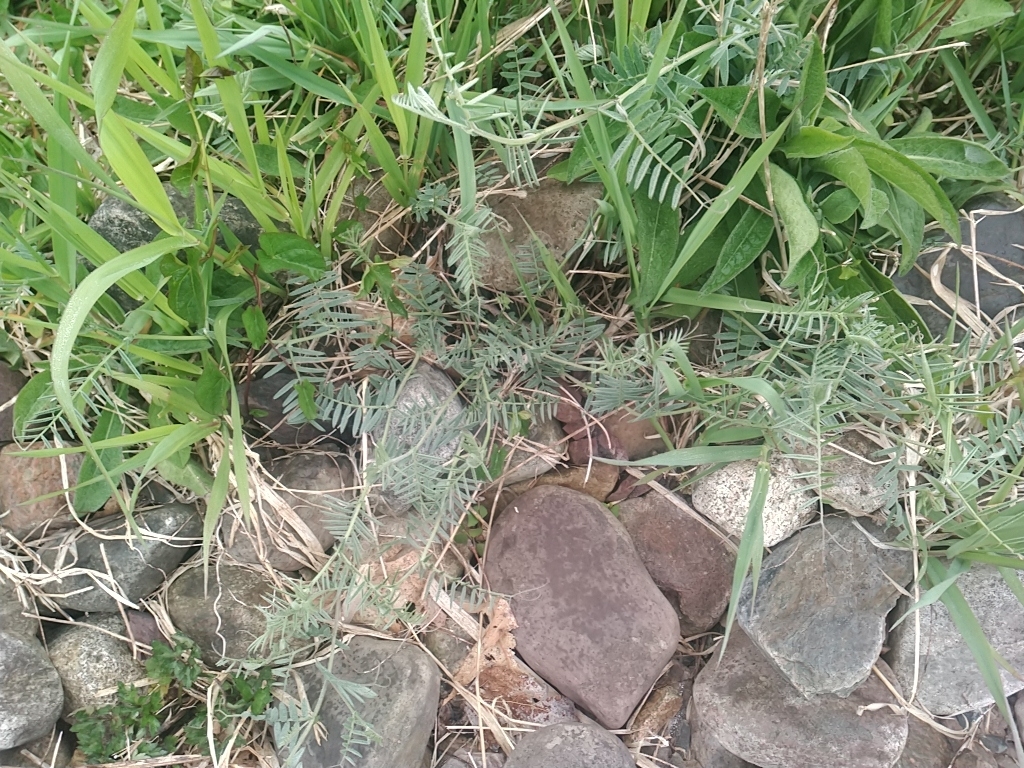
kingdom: Plantae
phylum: Tracheophyta
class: Magnoliopsida
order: Fabales
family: Fabaceae
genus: Vicia
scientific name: Vicia cracca
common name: Bird vetch
